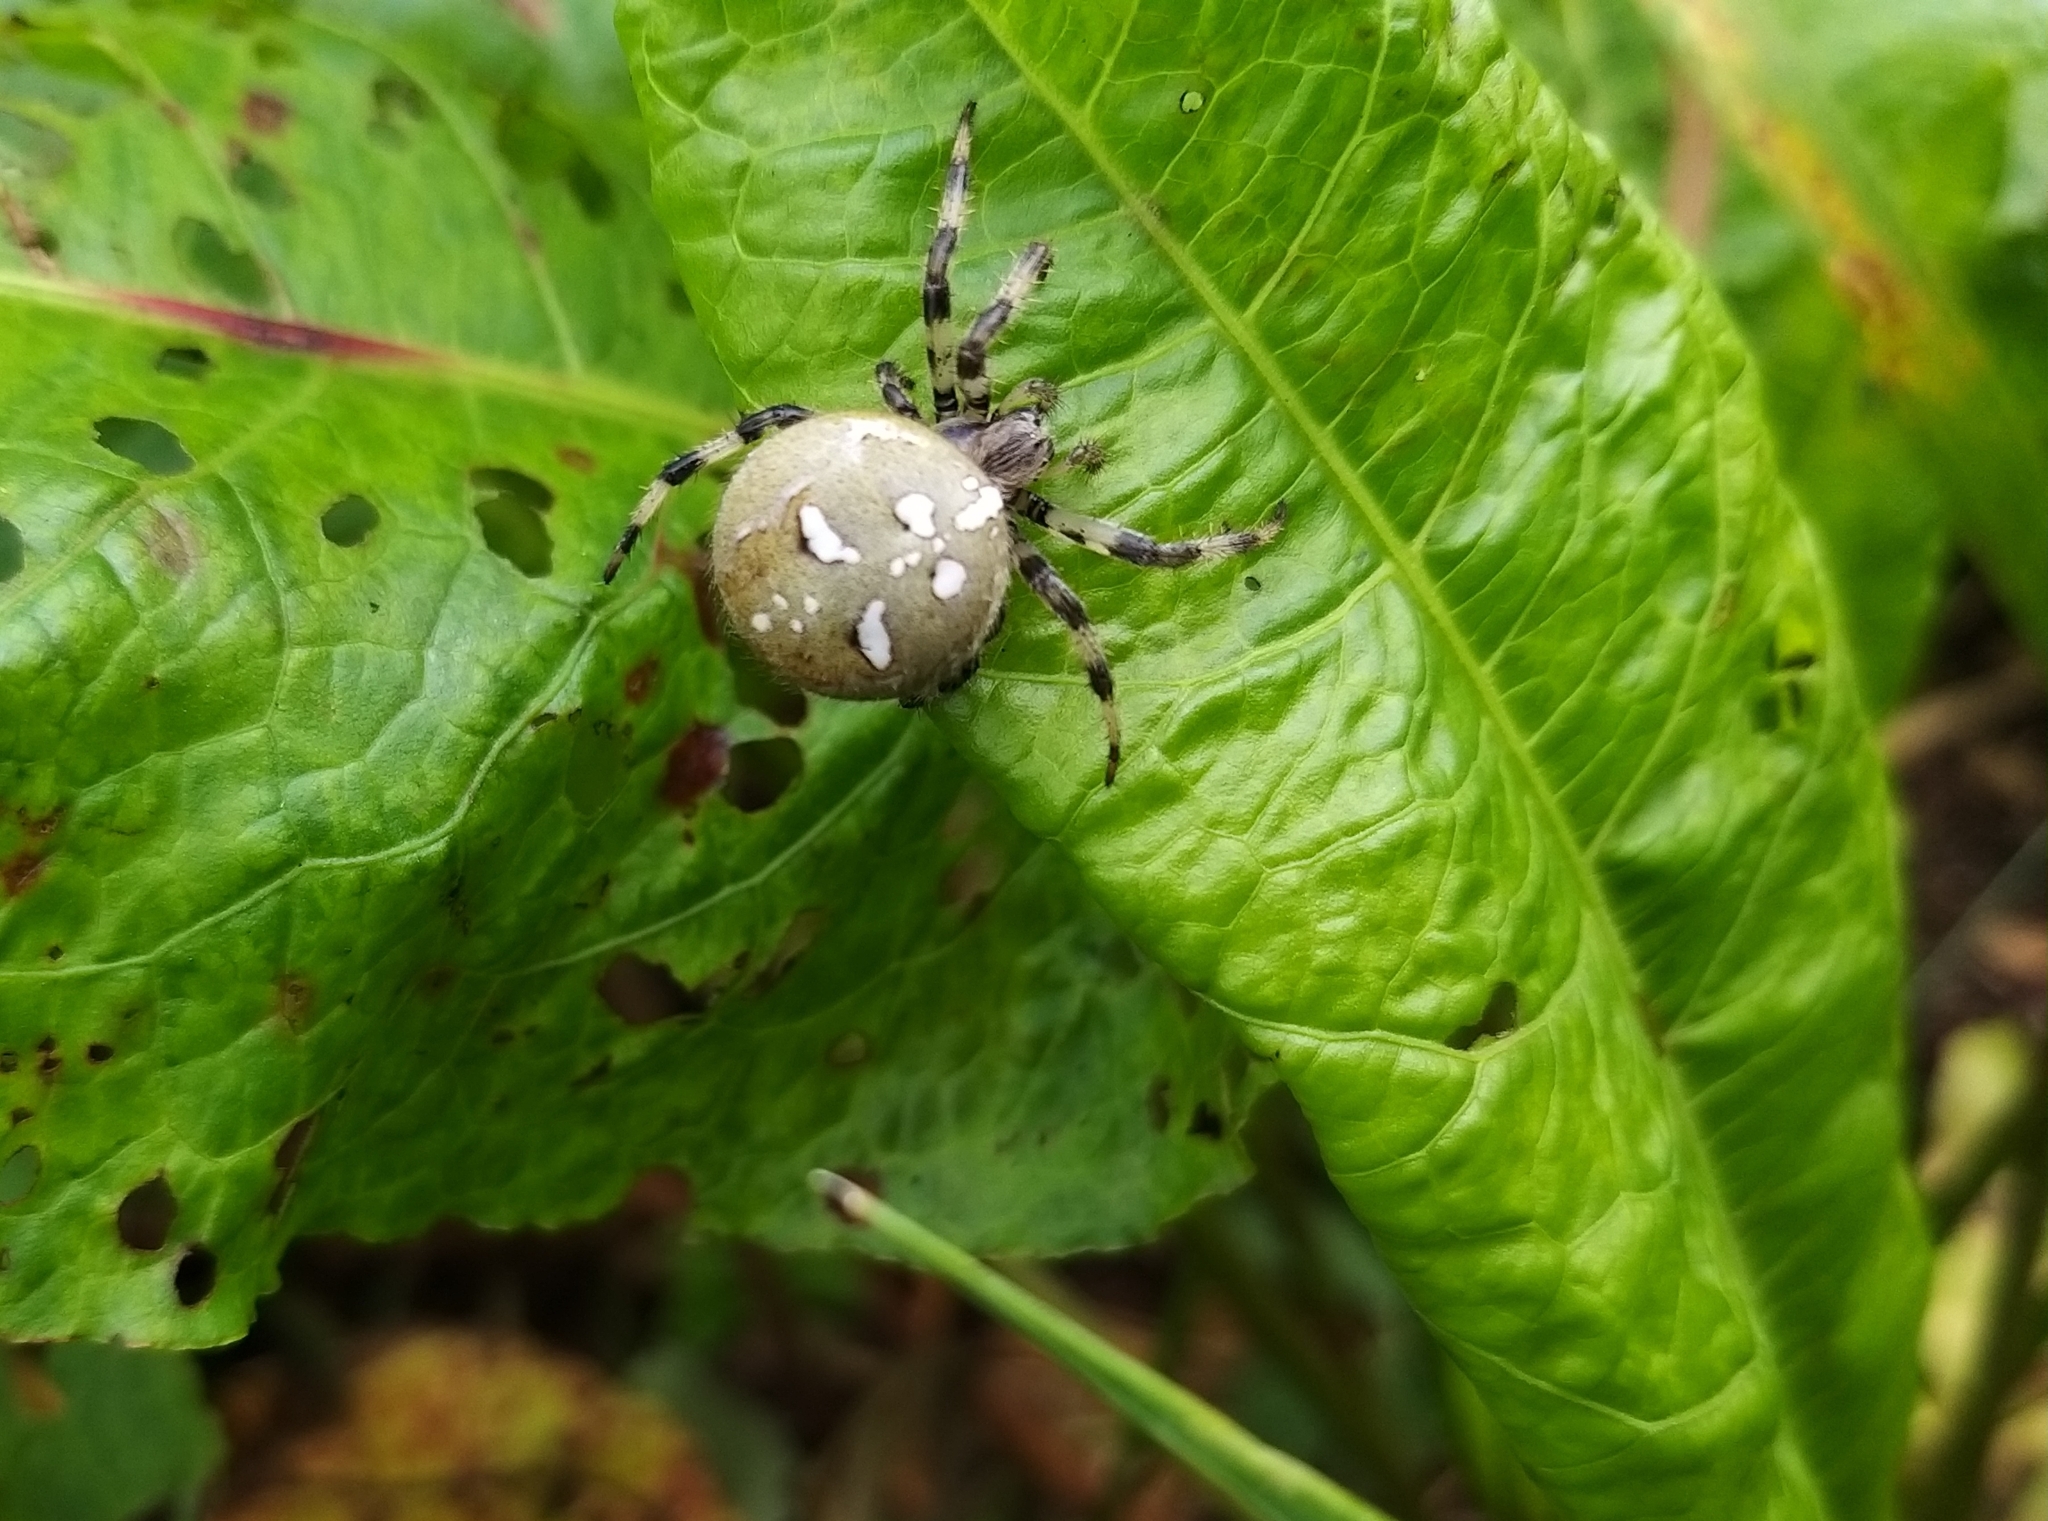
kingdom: Animalia
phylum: Arthropoda
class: Arachnida
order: Araneae
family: Araneidae
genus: Araneus
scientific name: Araneus quadratus
